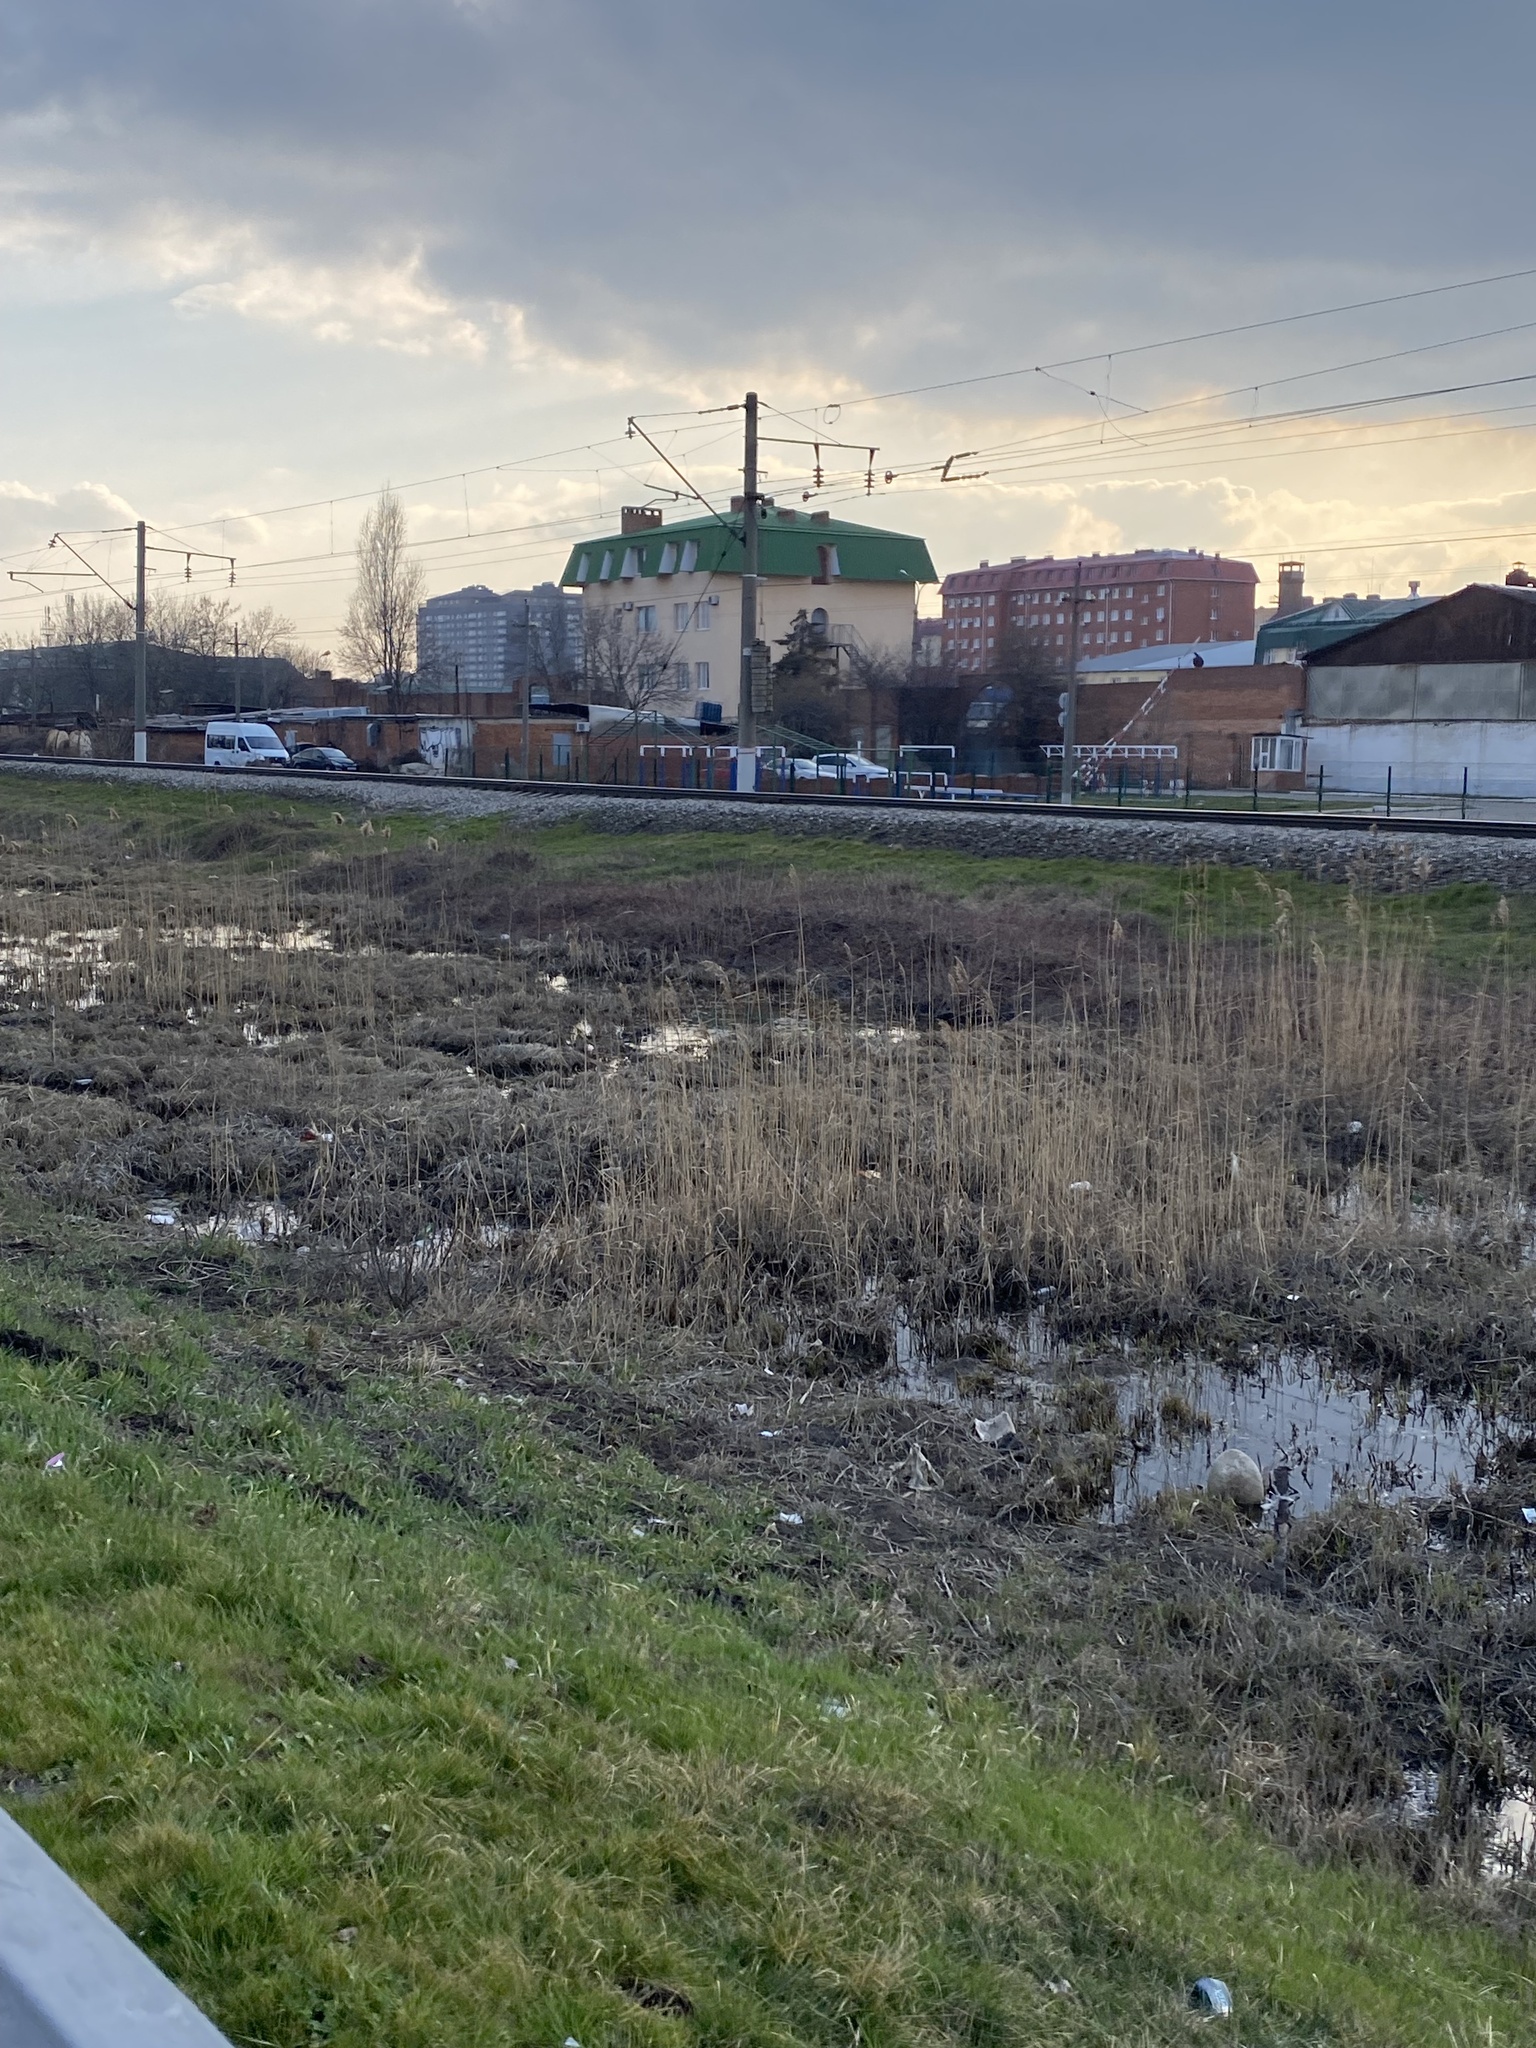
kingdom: Plantae
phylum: Tracheophyta
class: Liliopsida
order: Poales
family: Poaceae
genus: Phragmites
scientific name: Phragmites australis
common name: Common reed
